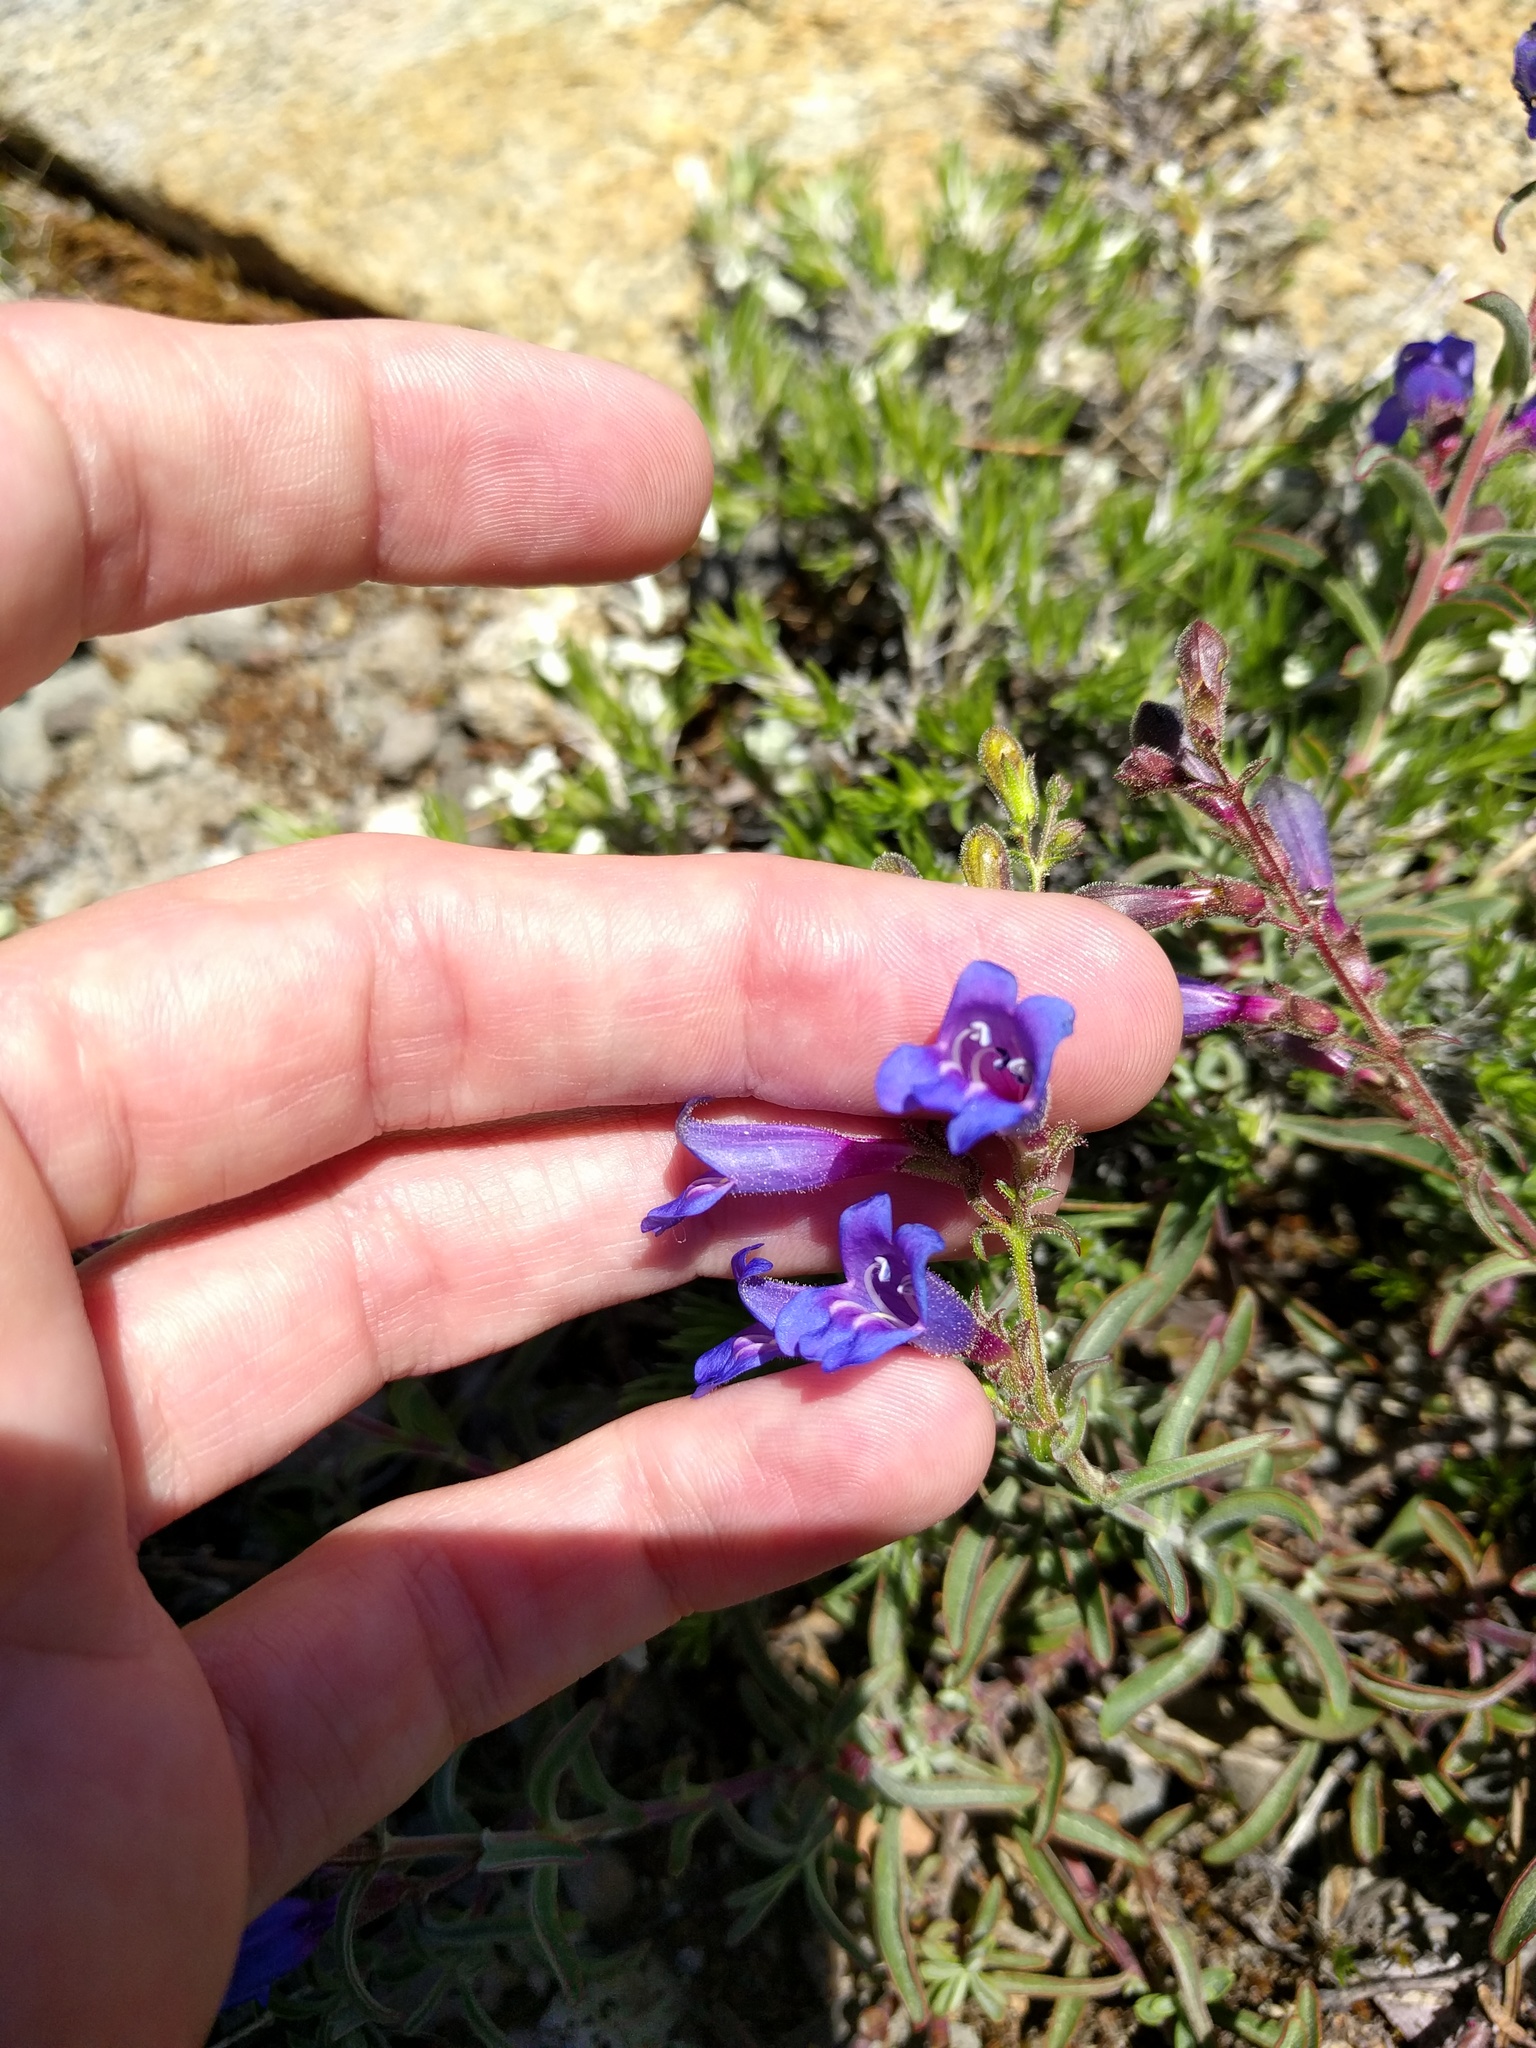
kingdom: Plantae
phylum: Tracheophyta
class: Magnoliopsida
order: Lamiales
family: Plantaginaceae
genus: Penstemon
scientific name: Penstemon speciosus
